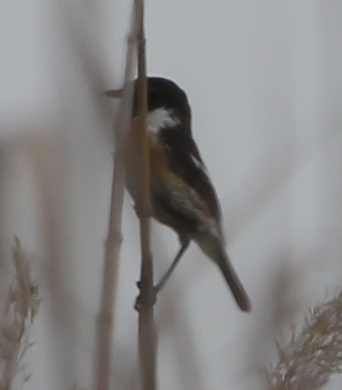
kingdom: Animalia
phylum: Chordata
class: Aves
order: Passeriformes
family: Muscicapidae
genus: Saxicola
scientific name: Saxicola rubicola
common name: European stonechat
